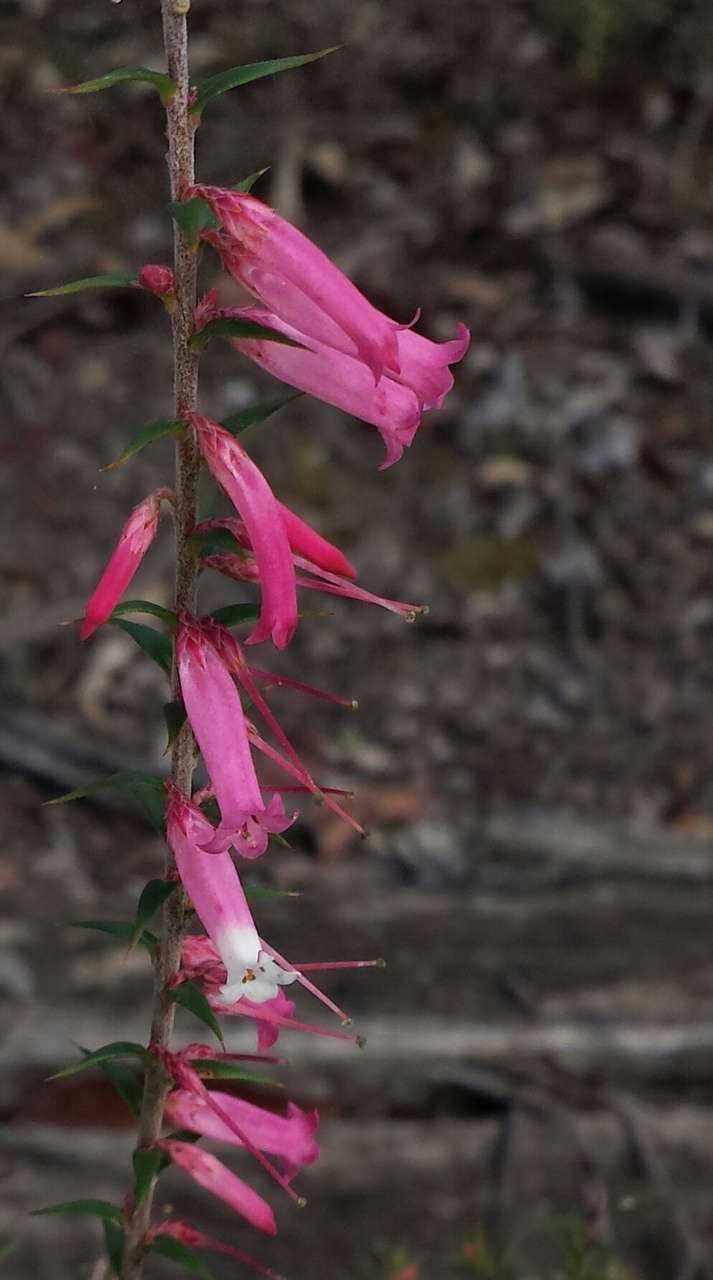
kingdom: Plantae
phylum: Tracheophyta
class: Magnoliopsida
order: Ericales
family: Ericaceae
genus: Epacris
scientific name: Epacris impressa
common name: Common-heath
